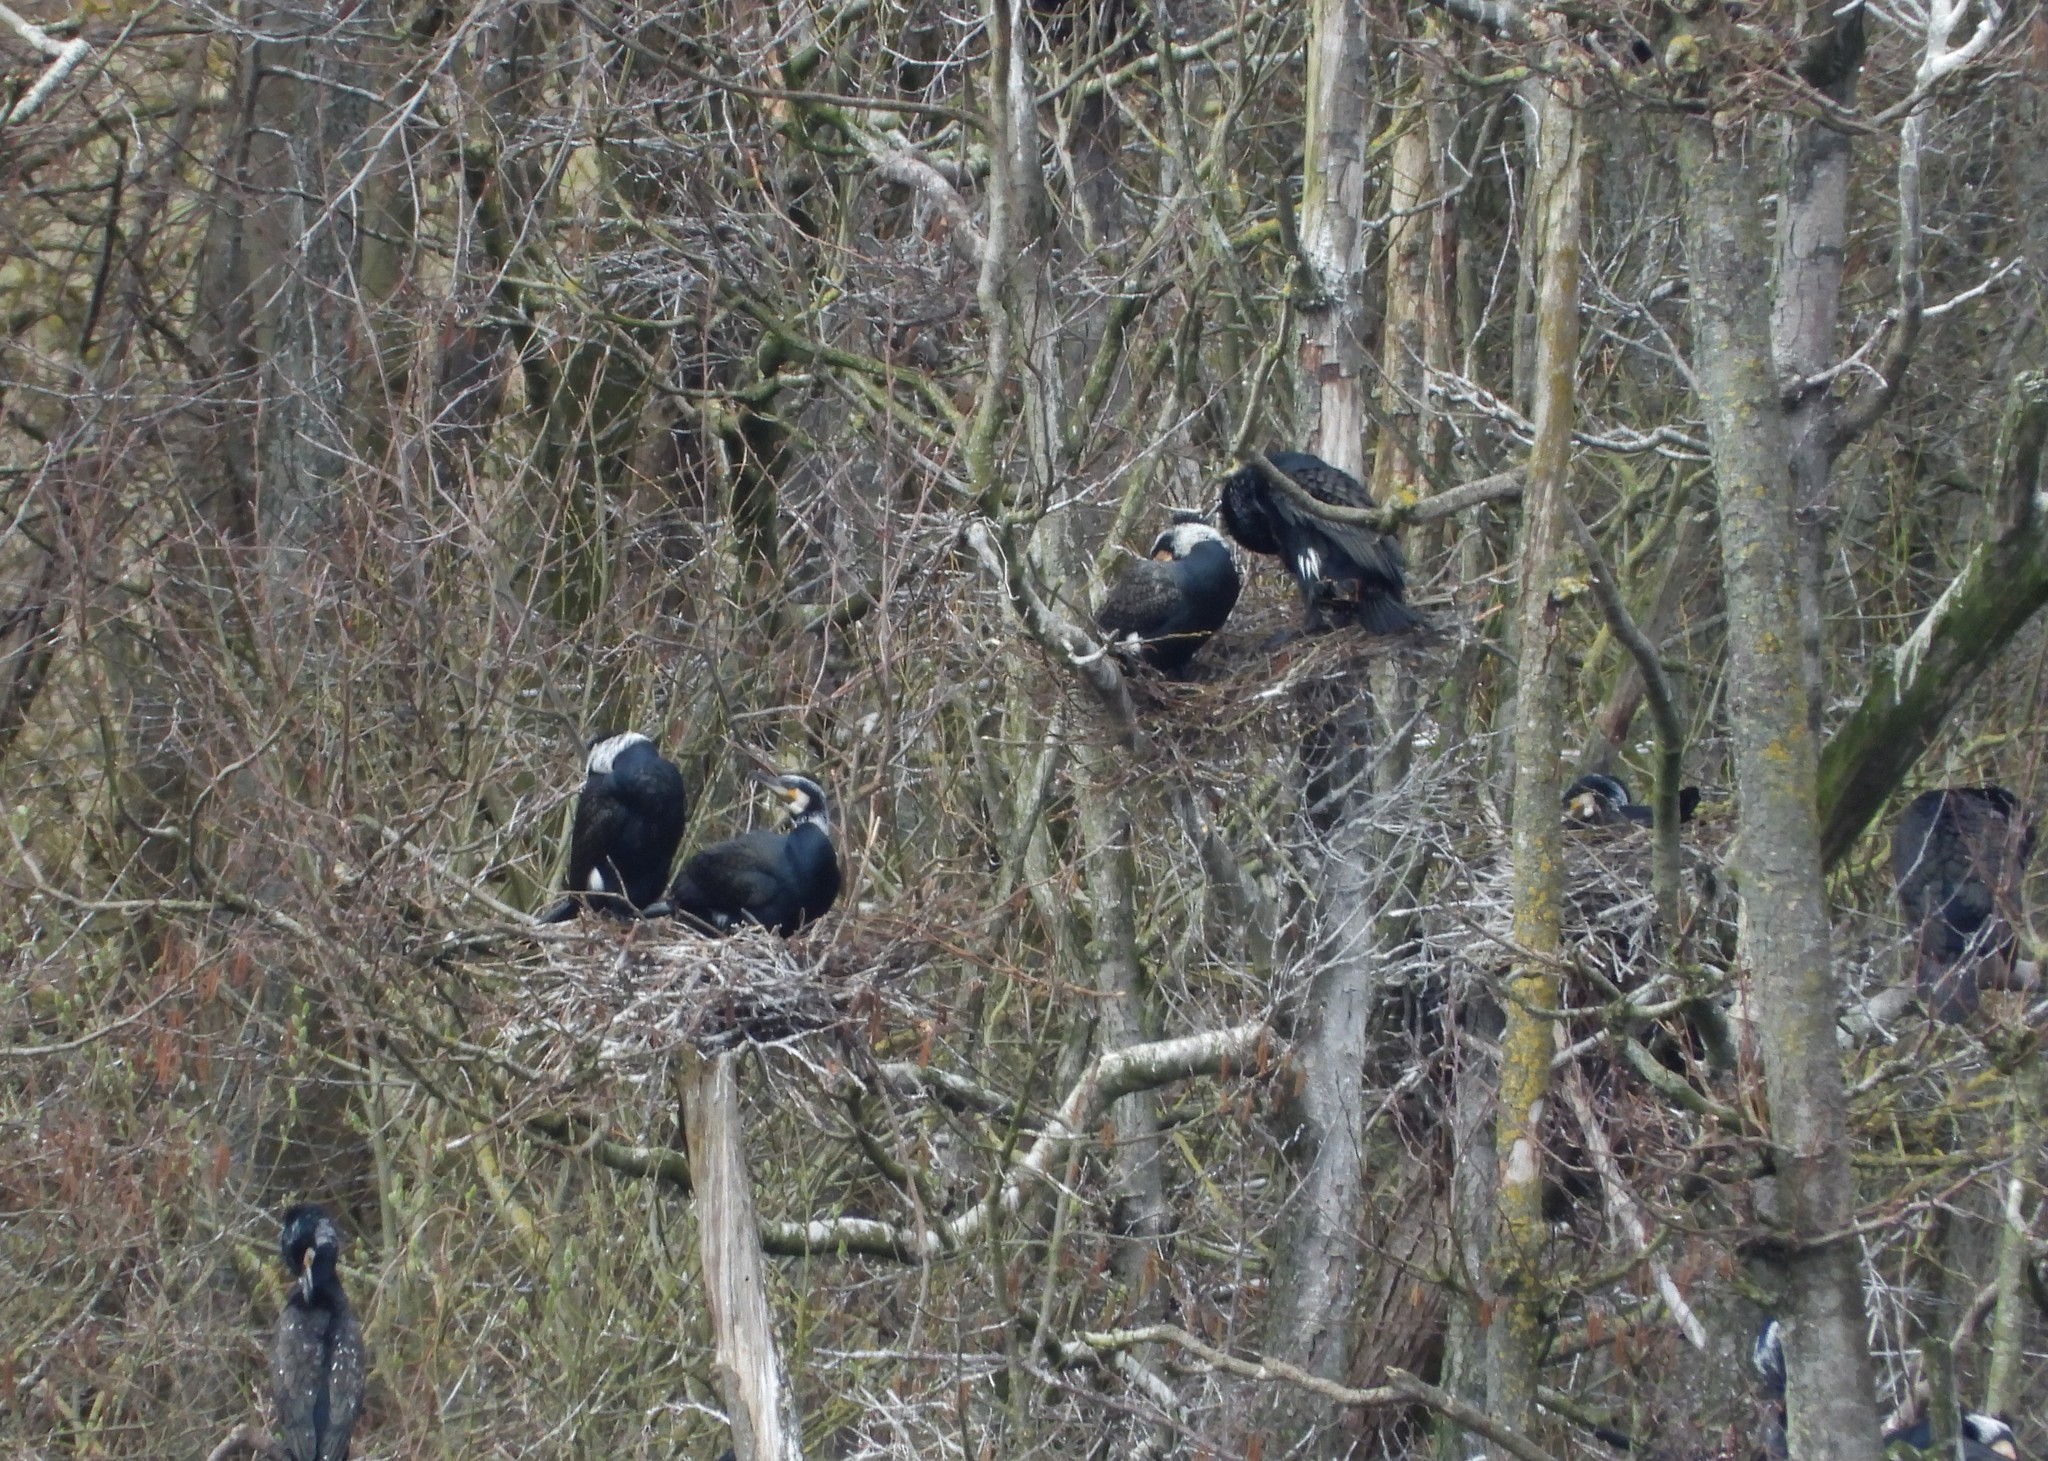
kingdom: Animalia
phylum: Chordata
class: Aves
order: Suliformes
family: Phalacrocoracidae
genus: Phalacrocorax
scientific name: Phalacrocorax carbo
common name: Great cormorant
